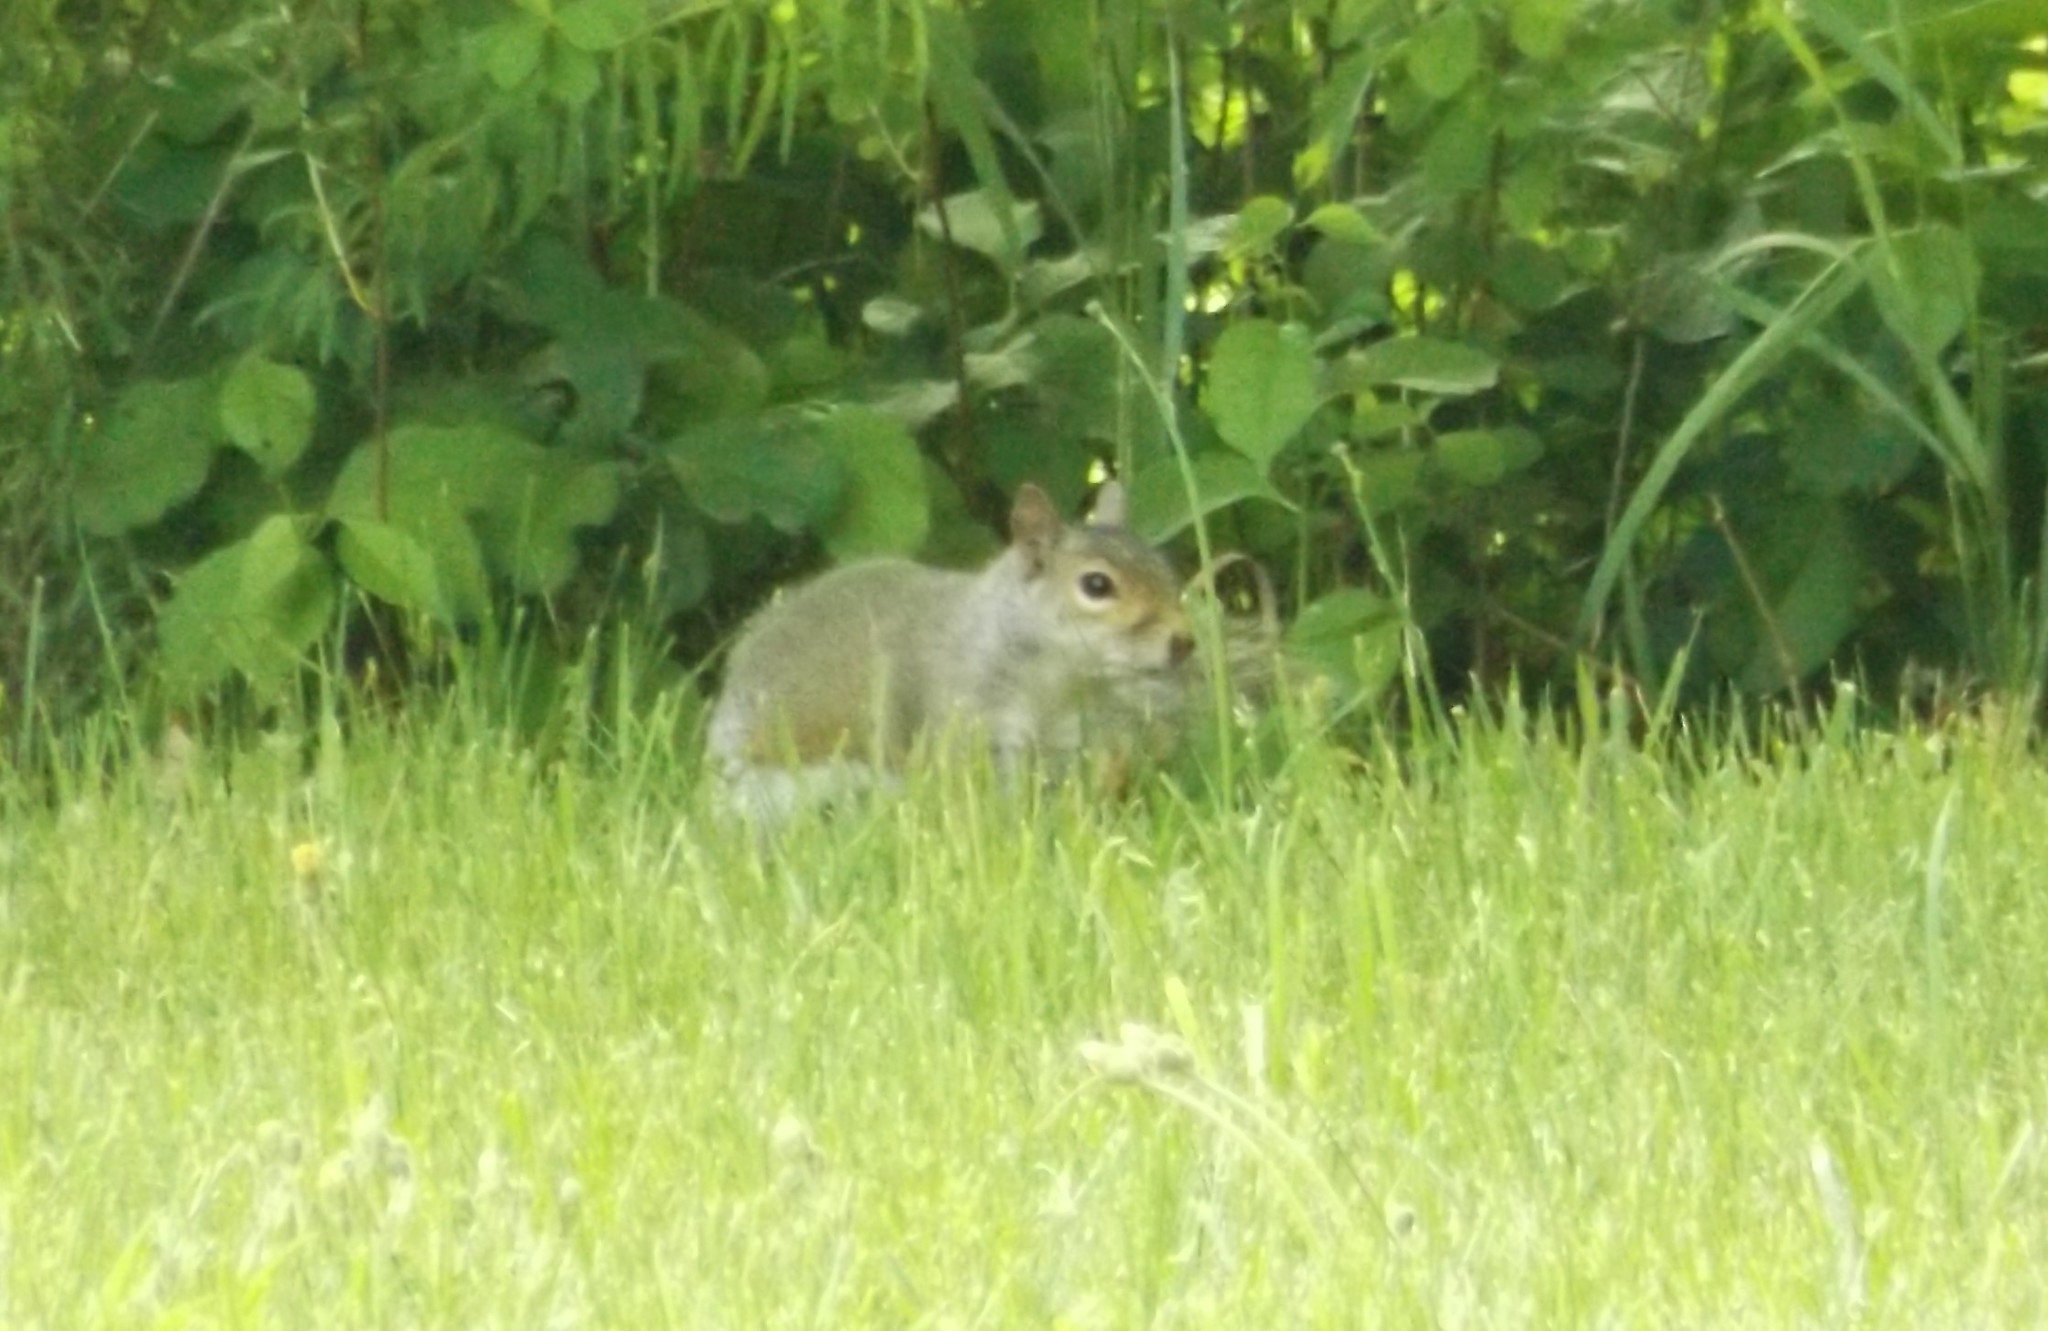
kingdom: Animalia
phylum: Chordata
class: Mammalia
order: Rodentia
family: Sciuridae
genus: Sciurus
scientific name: Sciurus carolinensis
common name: Eastern gray squirrel
